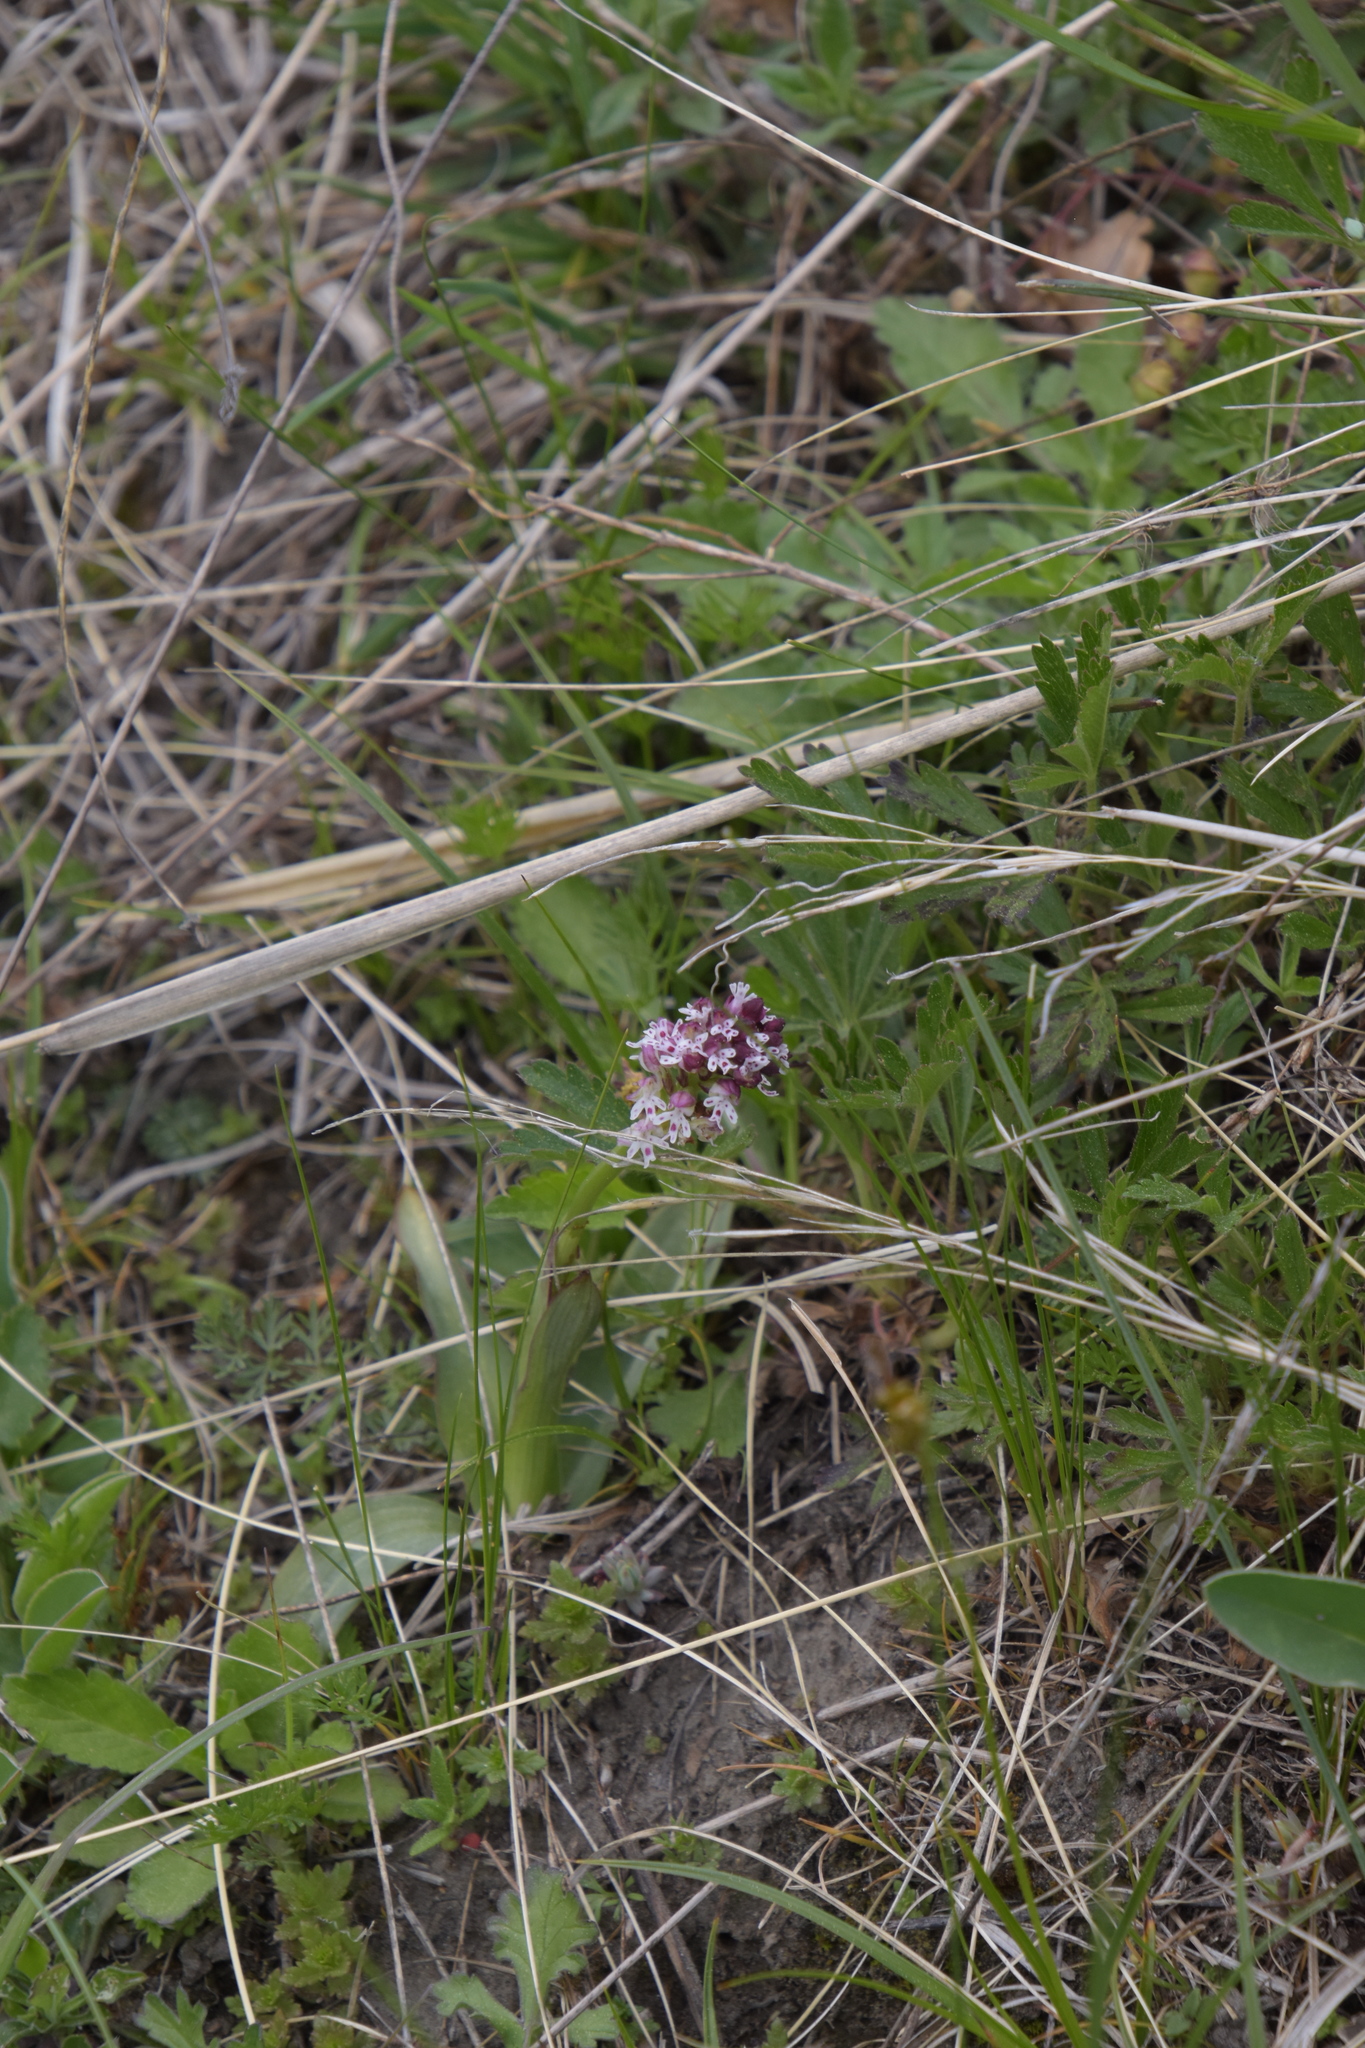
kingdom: Plantae
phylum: Tracheophyta
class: Liliopsida
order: Asparagales
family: Orchidaceae
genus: Neotinea
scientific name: Neotinea ustulata
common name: Burnt orchid
